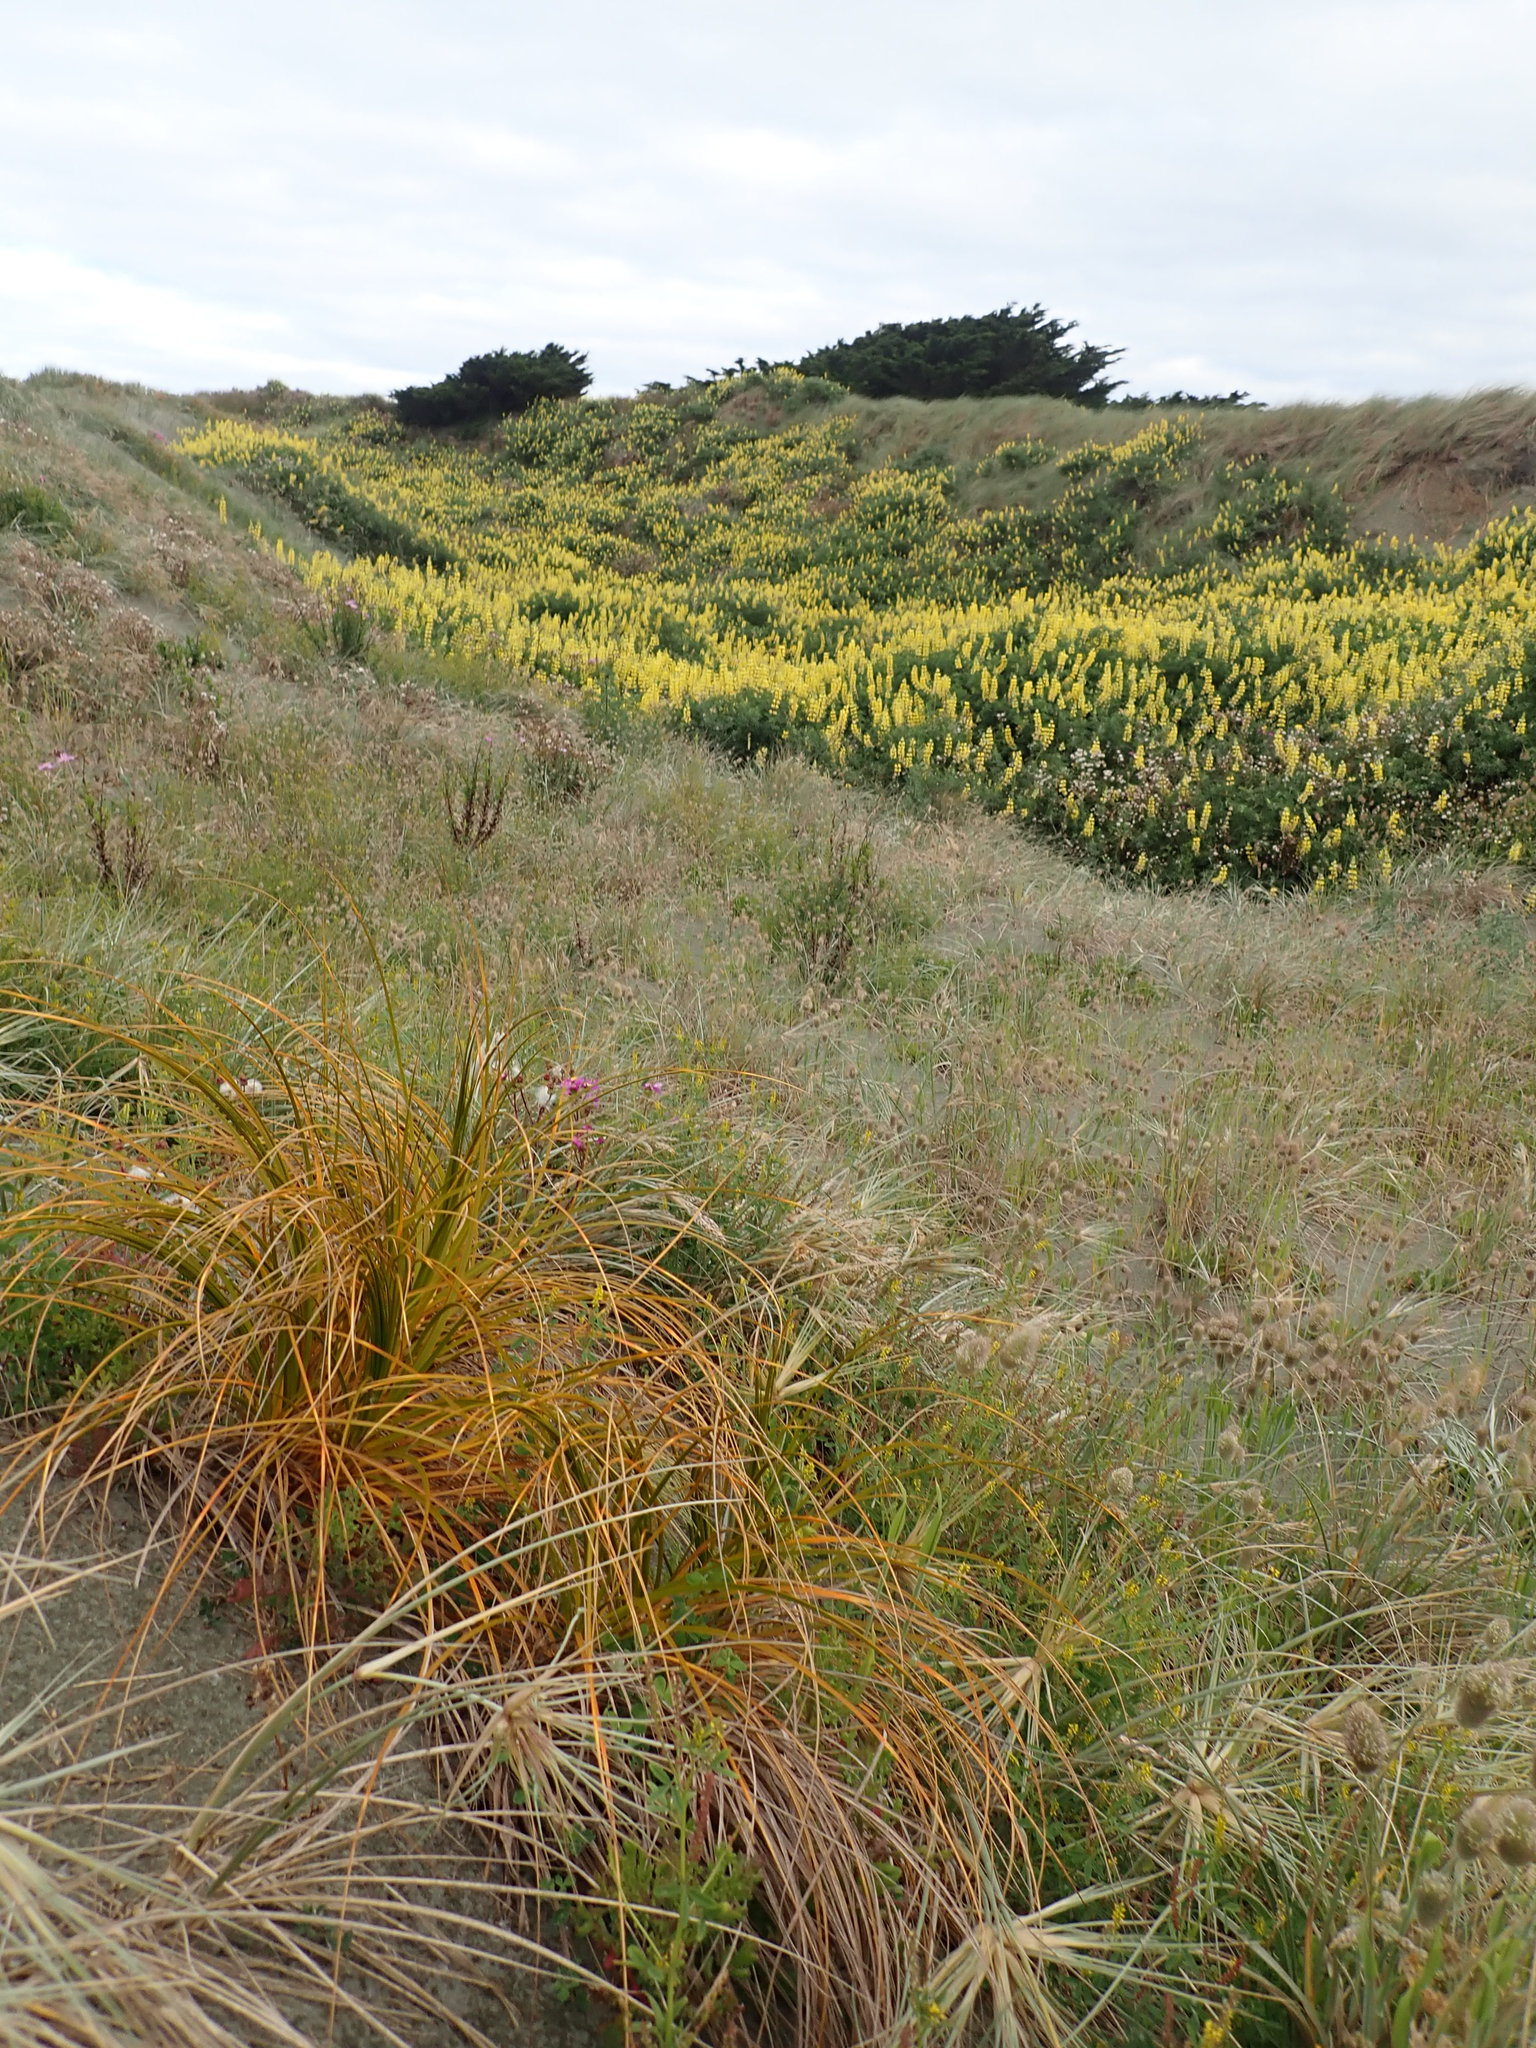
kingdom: Plantae
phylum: Tracheophyta
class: Liliopsida
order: Poales
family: Cyperaceae
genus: Ficinia
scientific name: Ficinia spiralis
